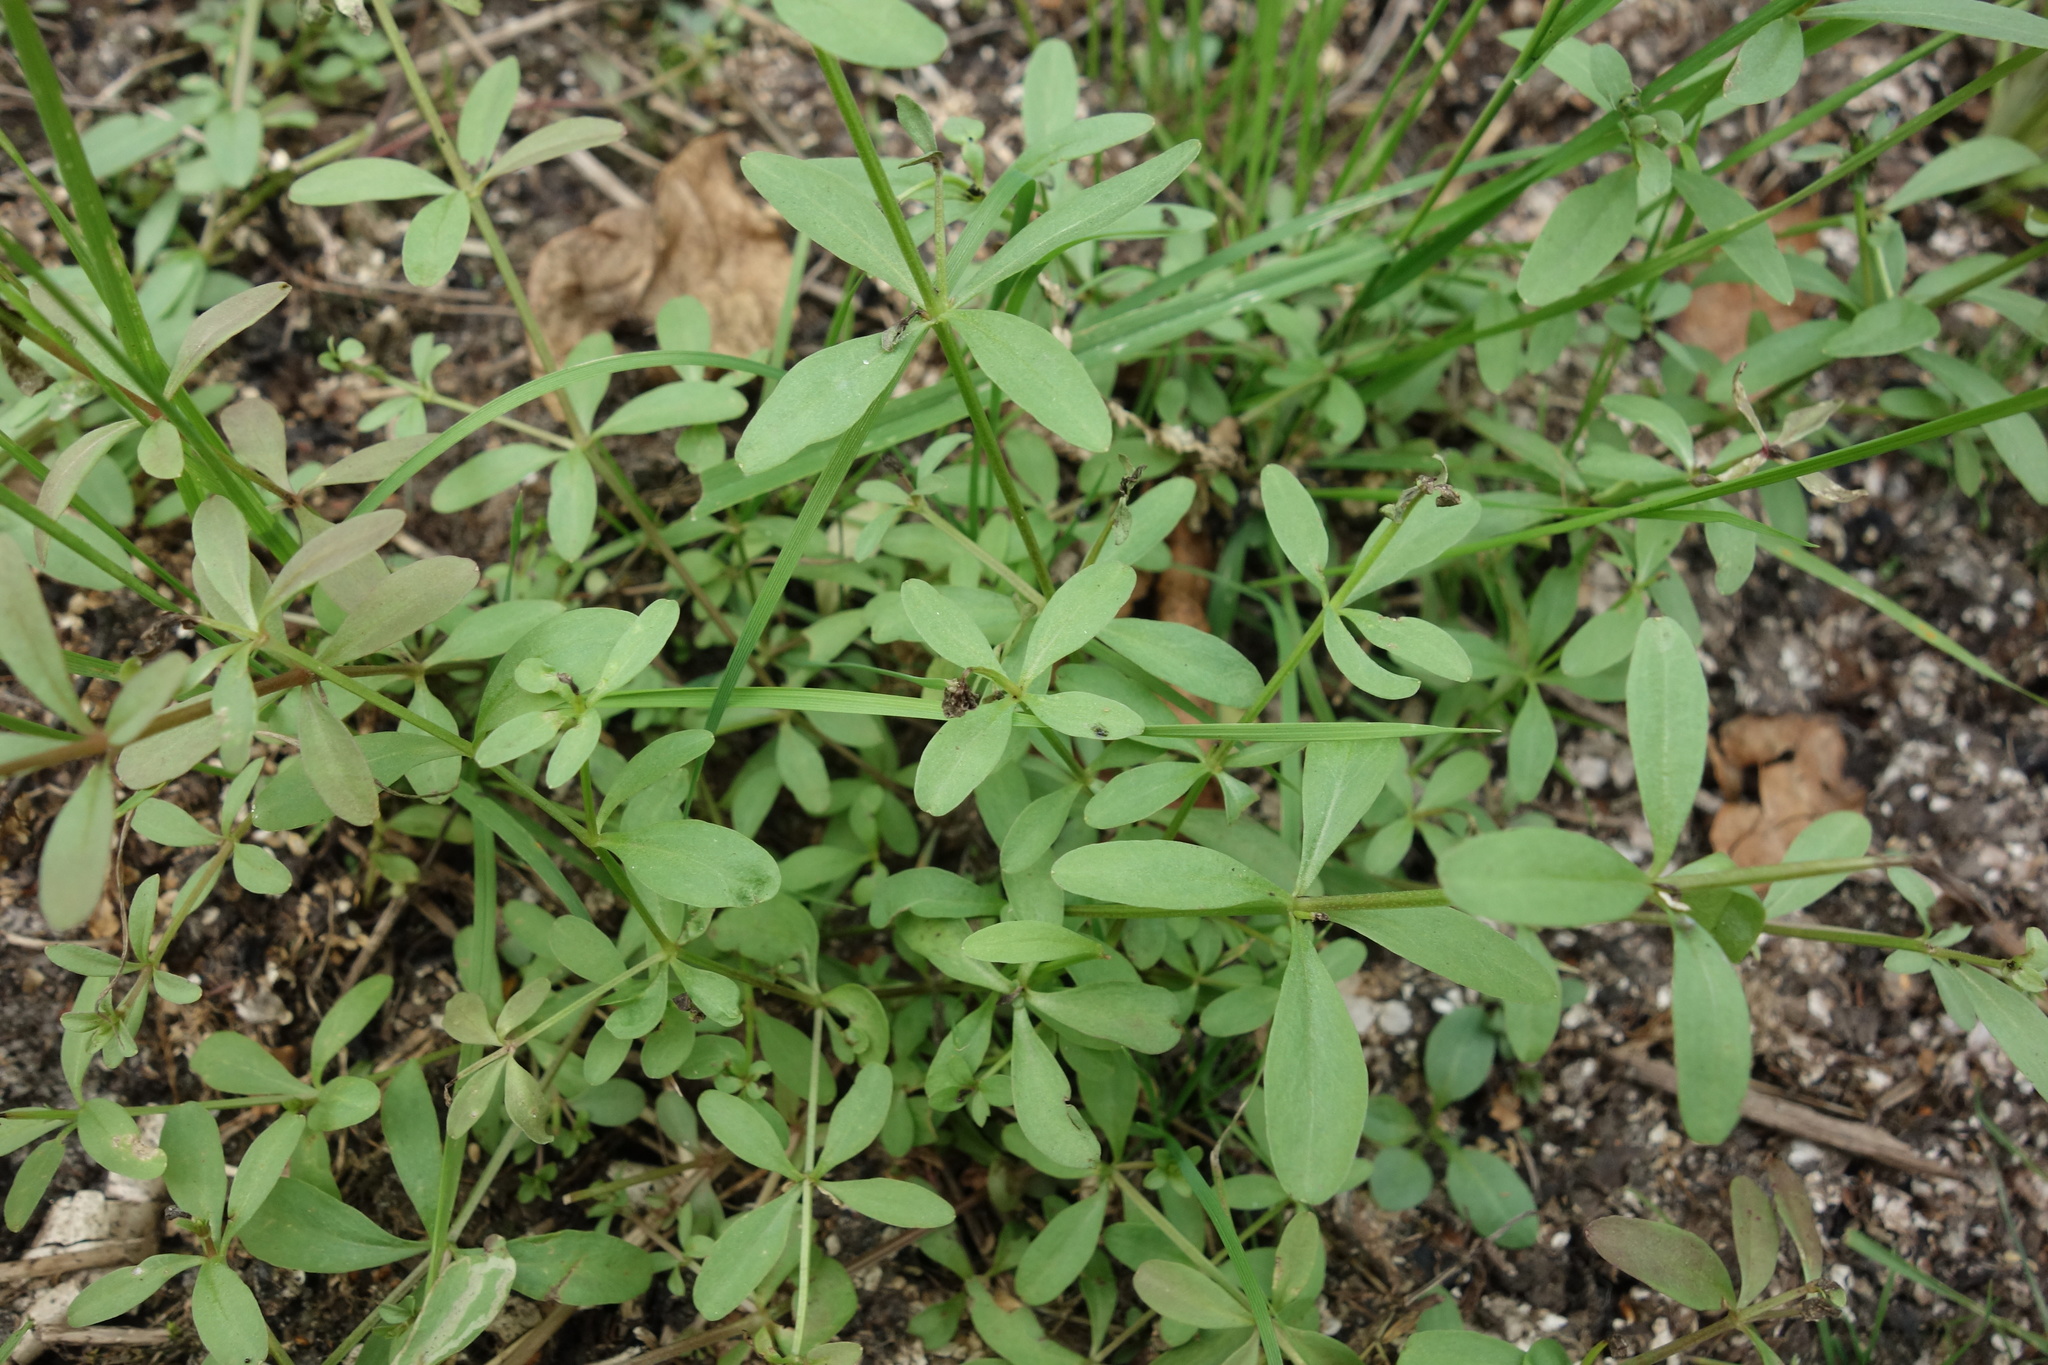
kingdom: Plantae
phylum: Tracheophyta
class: Magnoliopsida
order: Gentianales
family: Rubiaceae
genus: Galium
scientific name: Galium palustre
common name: Common marsh-bedstraw
